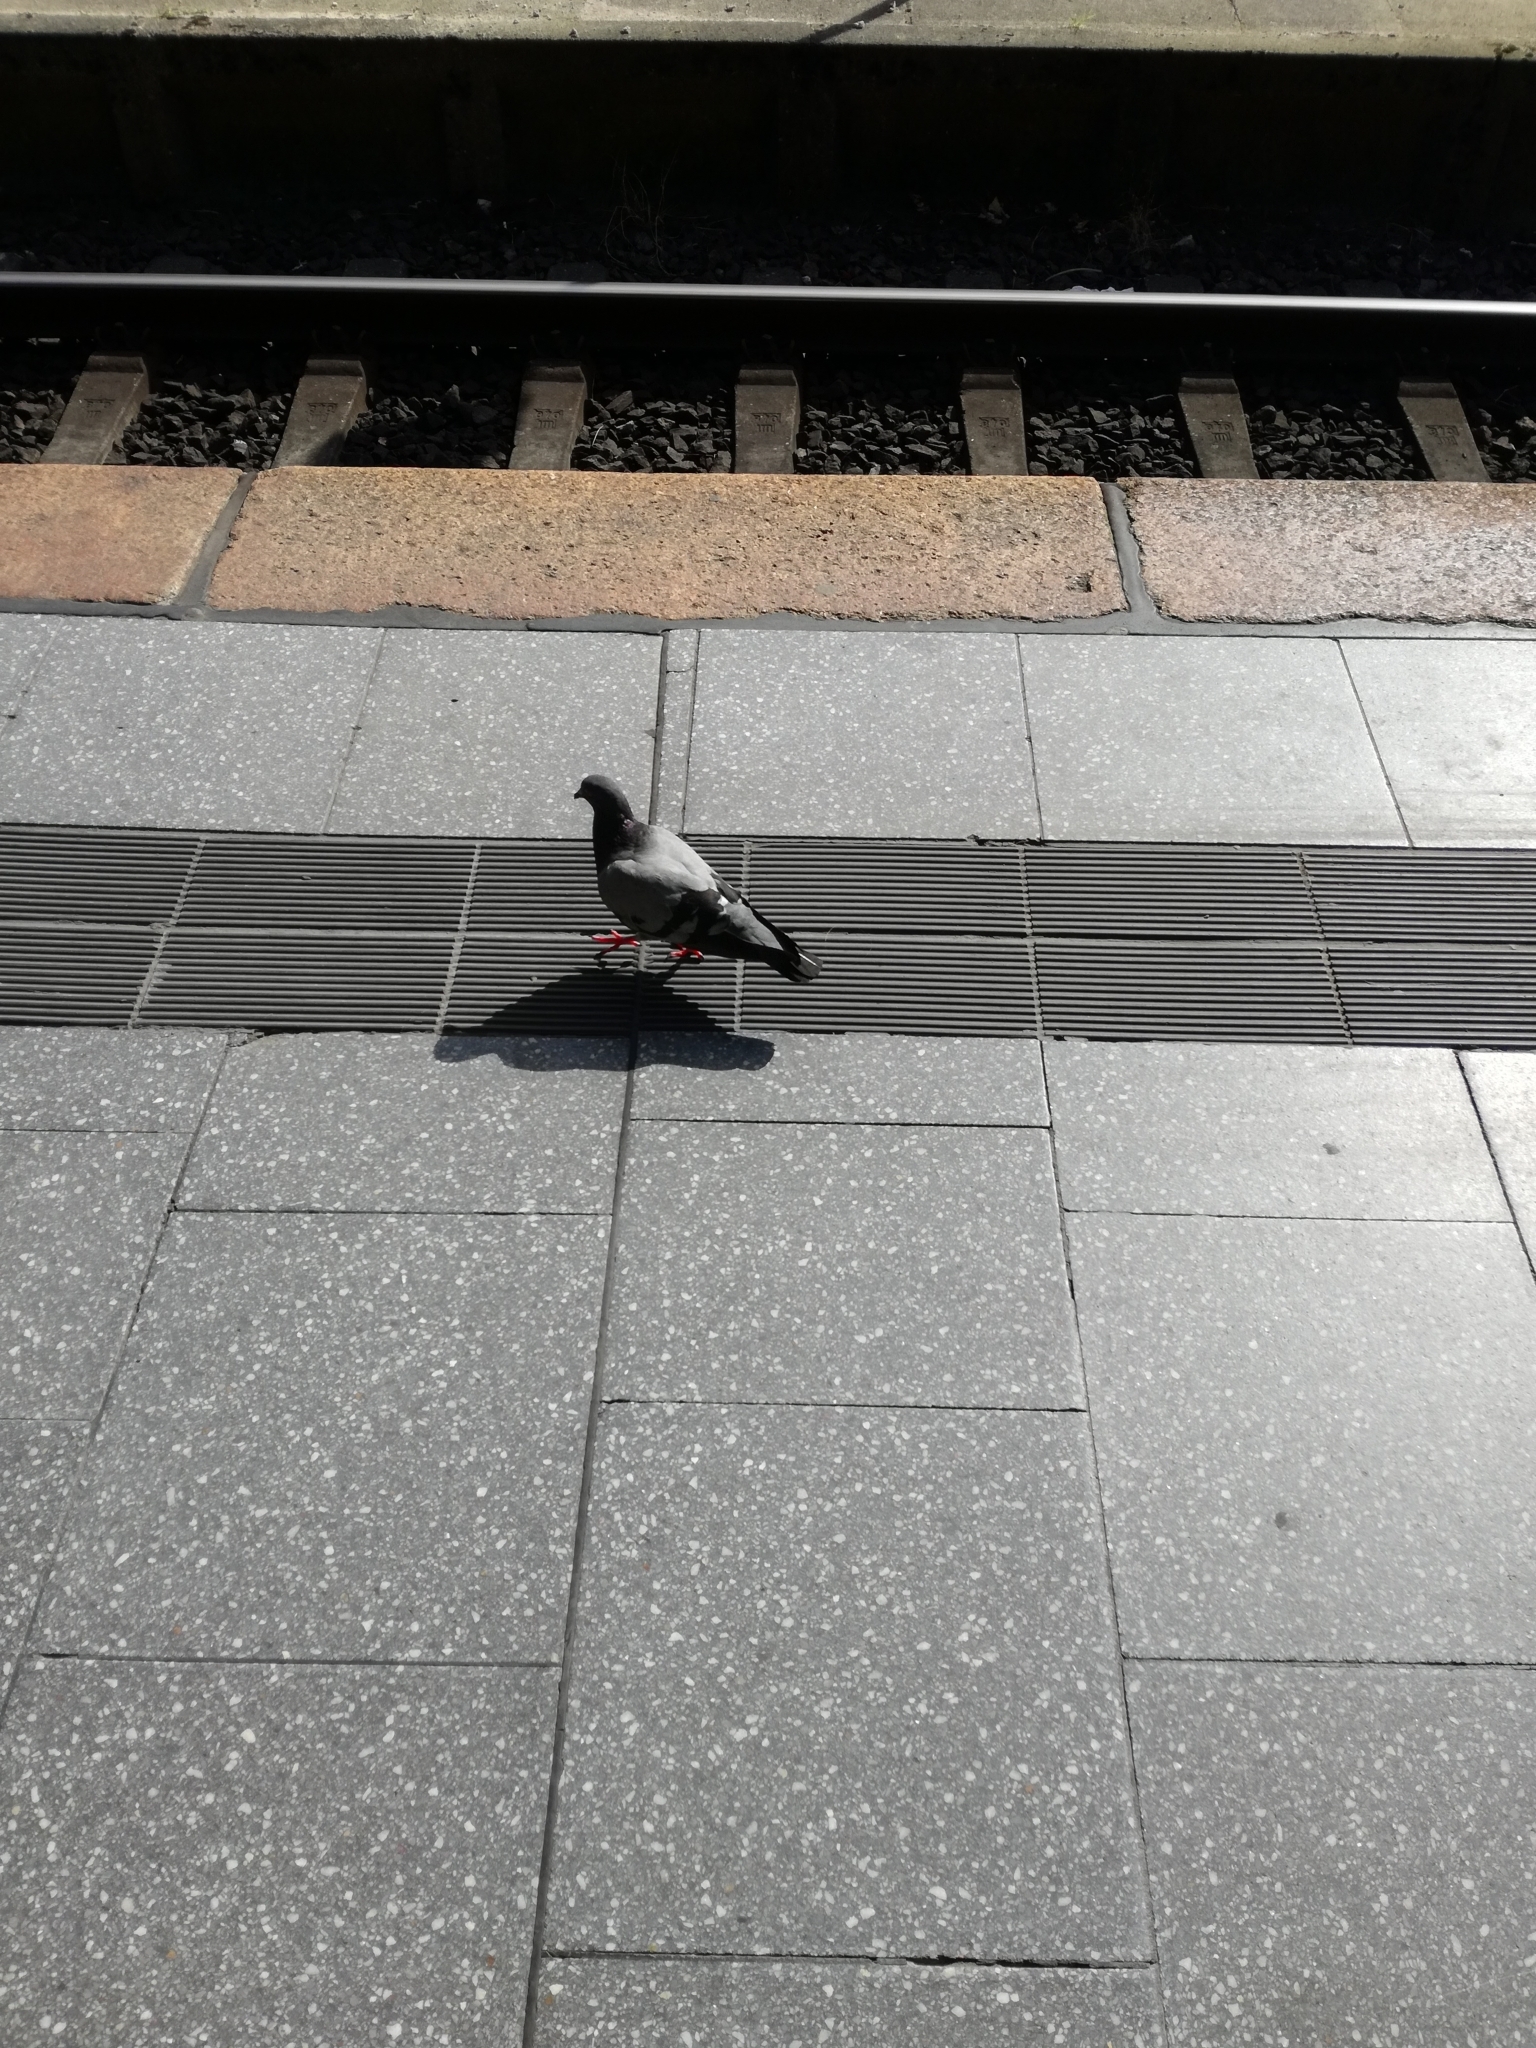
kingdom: Animalia
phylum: Chordata
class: Aves
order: Columbiformes
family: Columbidae
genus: Columba
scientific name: Columba livia
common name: Rock pigeon
